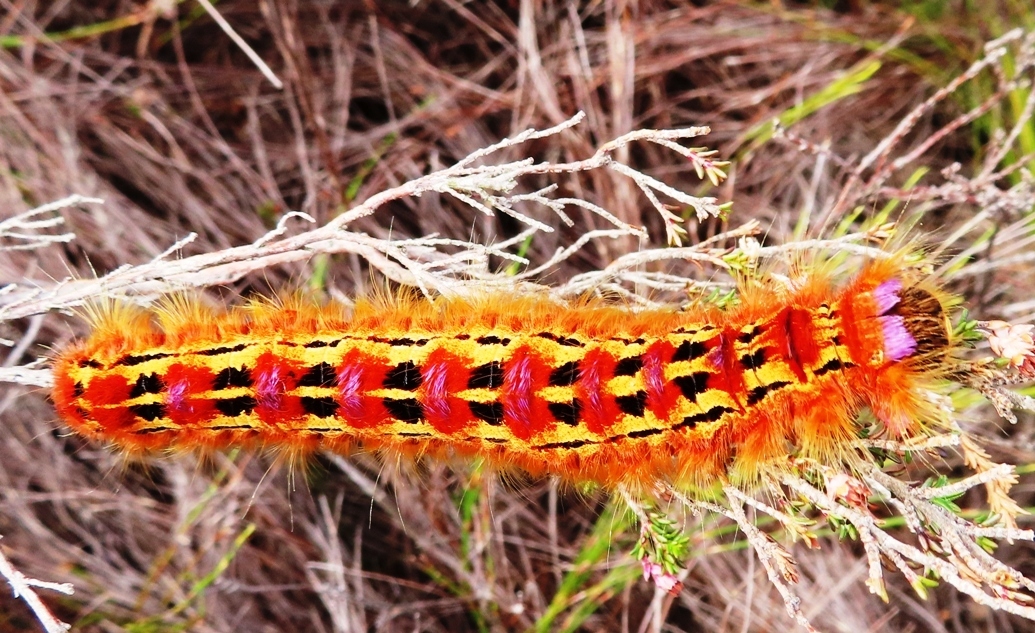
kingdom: Animalia
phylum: Arthropoda
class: Insecta
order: Lepidoptera
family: Lasiocampidae
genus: Eutricha
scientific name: Eutricha bifascia
